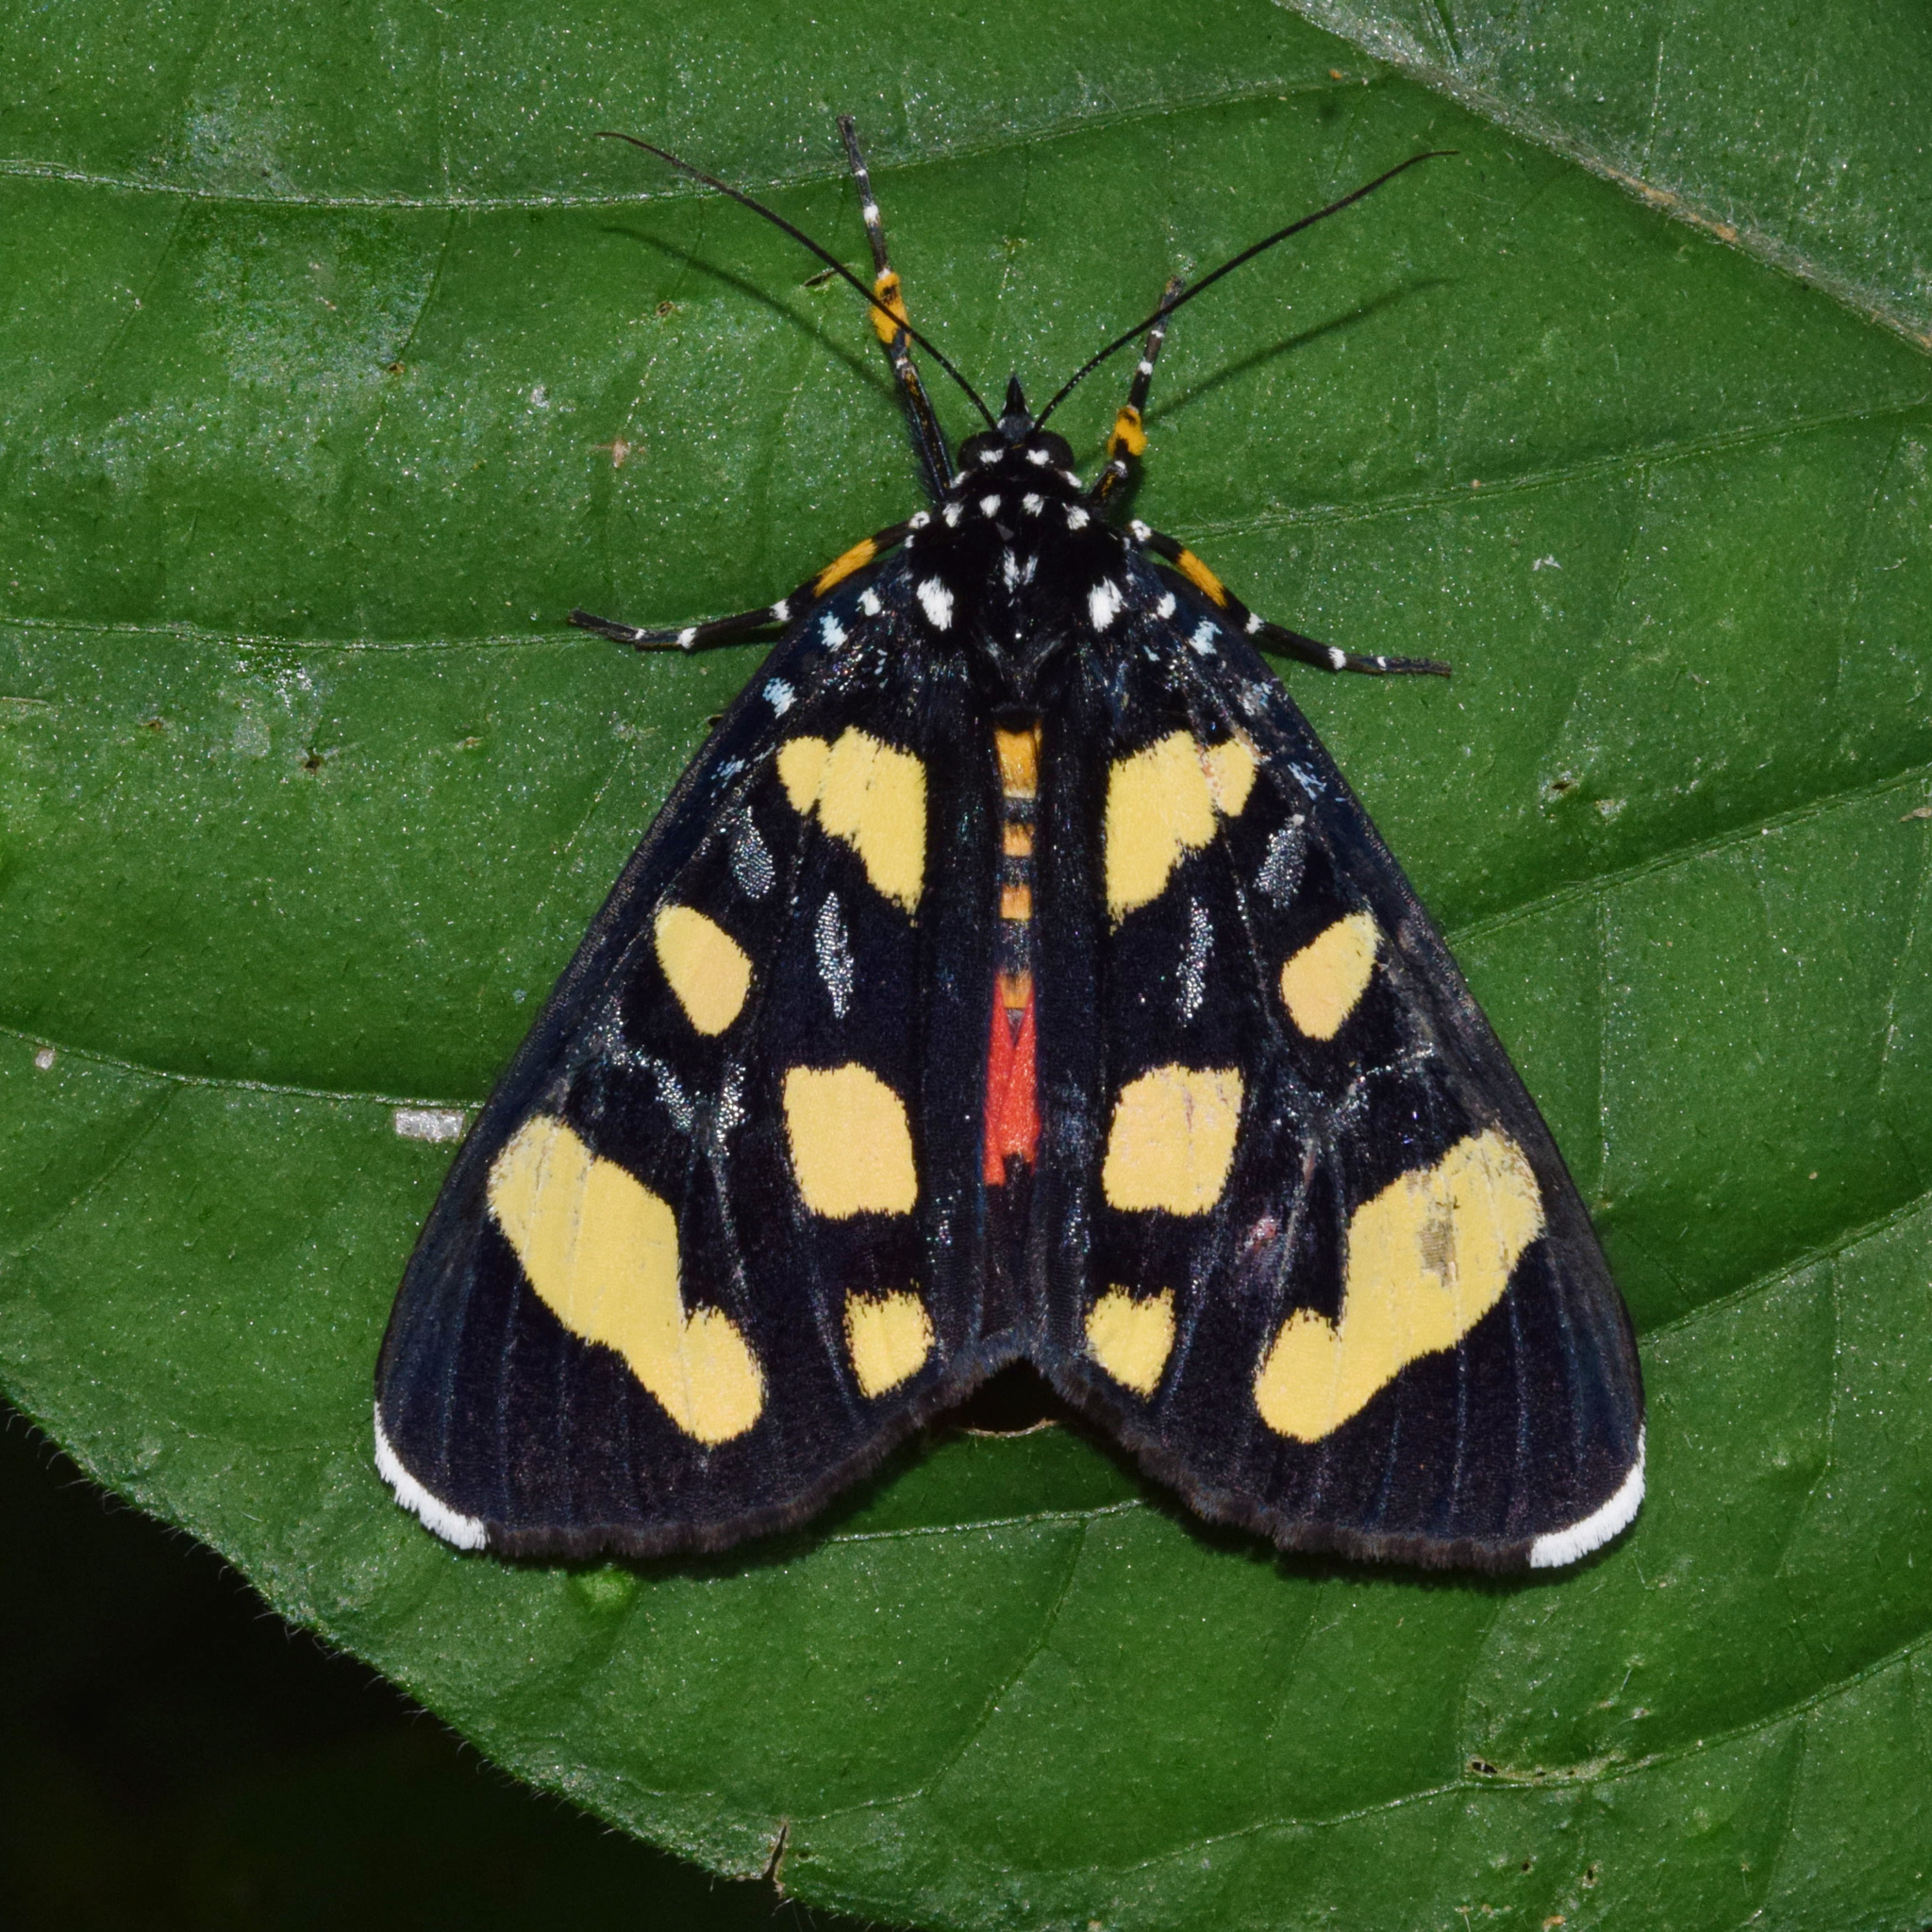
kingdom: Animalia
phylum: Arthropoda
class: Insecta
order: Lepidoptera
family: Noctuidae
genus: Heraclia
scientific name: Heraclia africana
